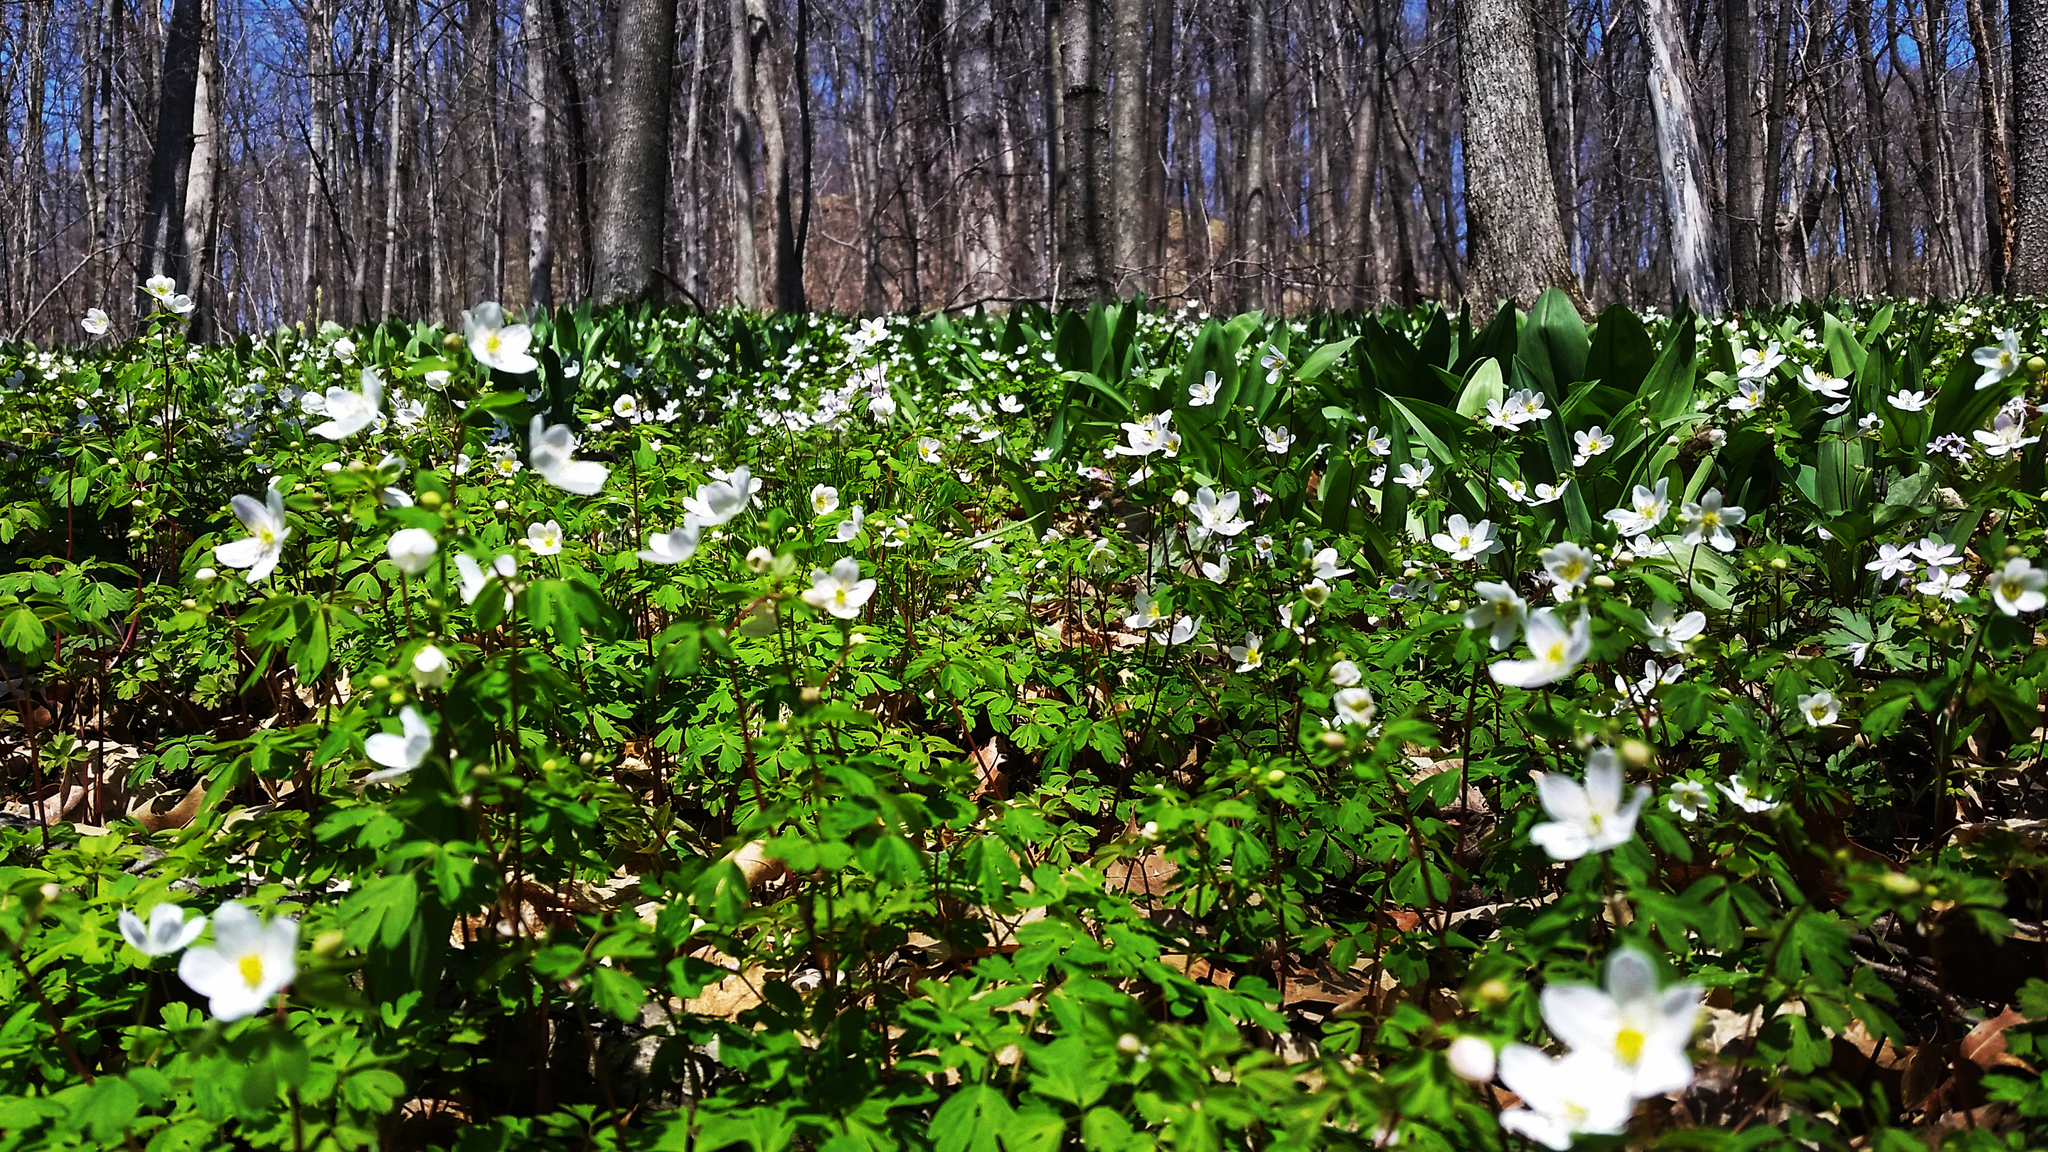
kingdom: Plantae
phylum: Tracheophyta
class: Magnoliopsida
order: Ranunculales
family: Ranunculaceae
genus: Anemone
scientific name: Anemone quinquefolia
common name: Wood anemone
